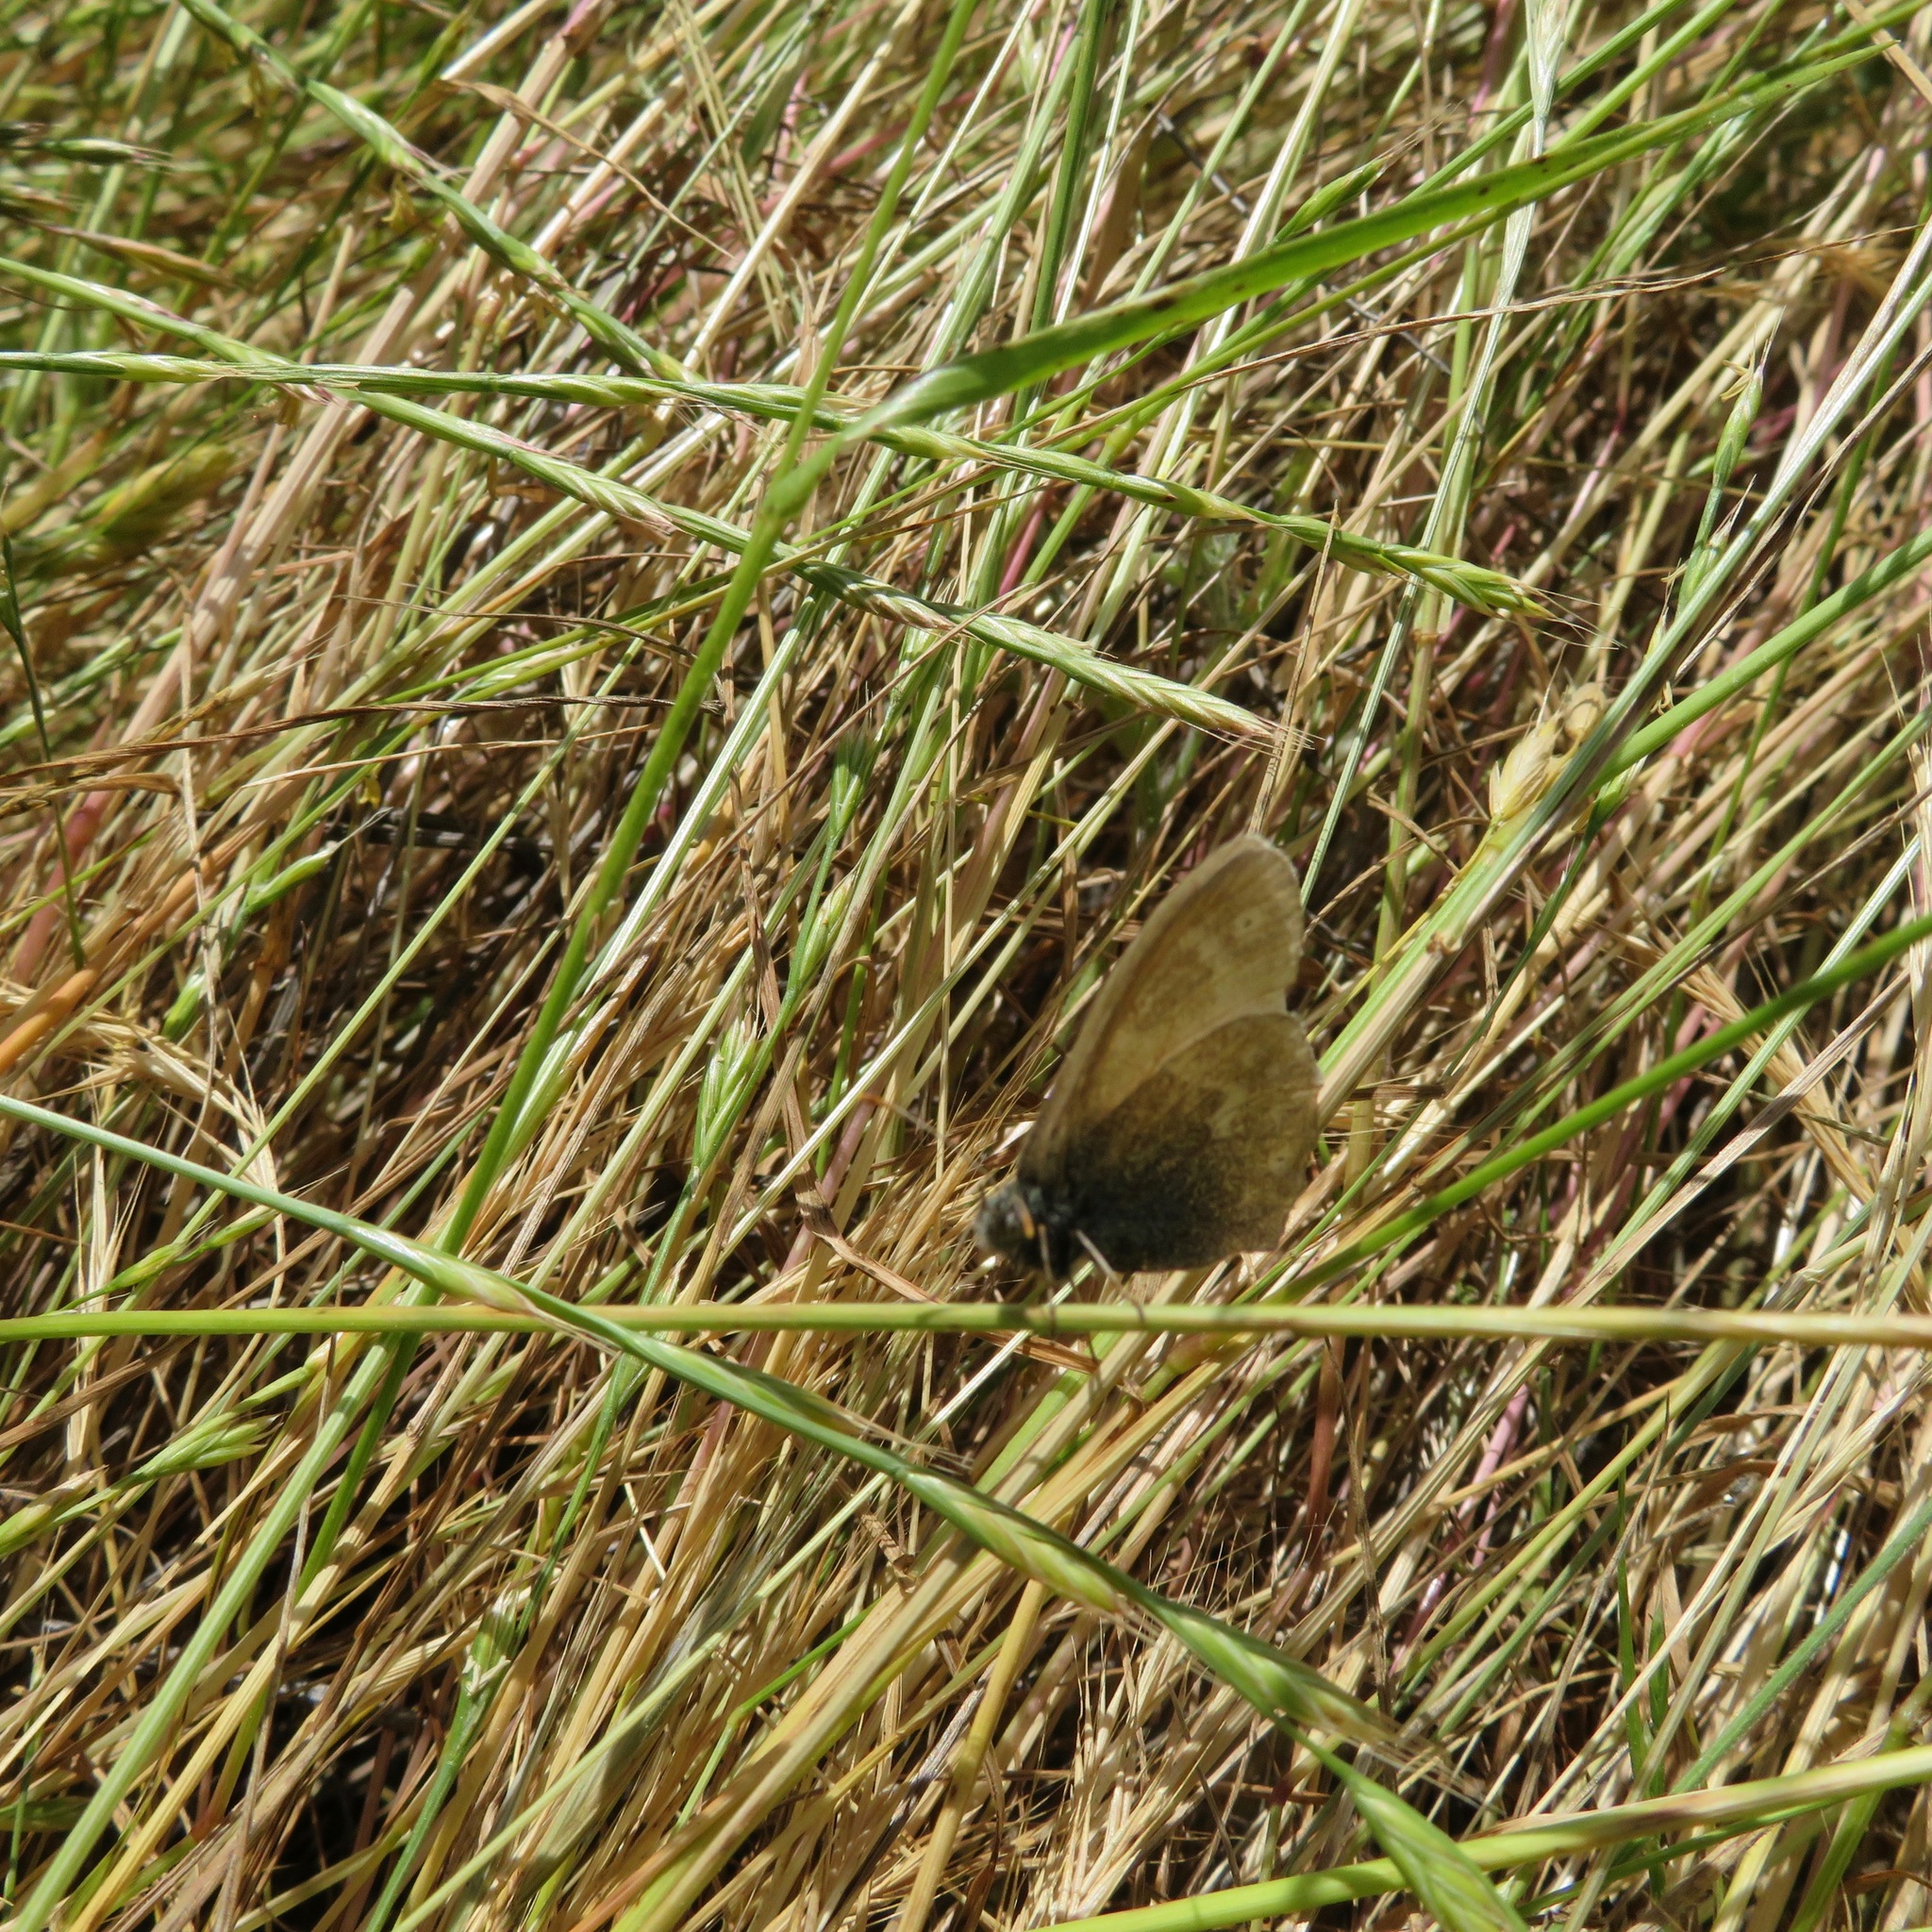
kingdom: Animalia
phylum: Arthropoda
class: Insecta
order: Lepidoptera
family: Nymphalidae
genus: Coenonympha
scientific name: Coenonympha california
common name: Common ringlet
